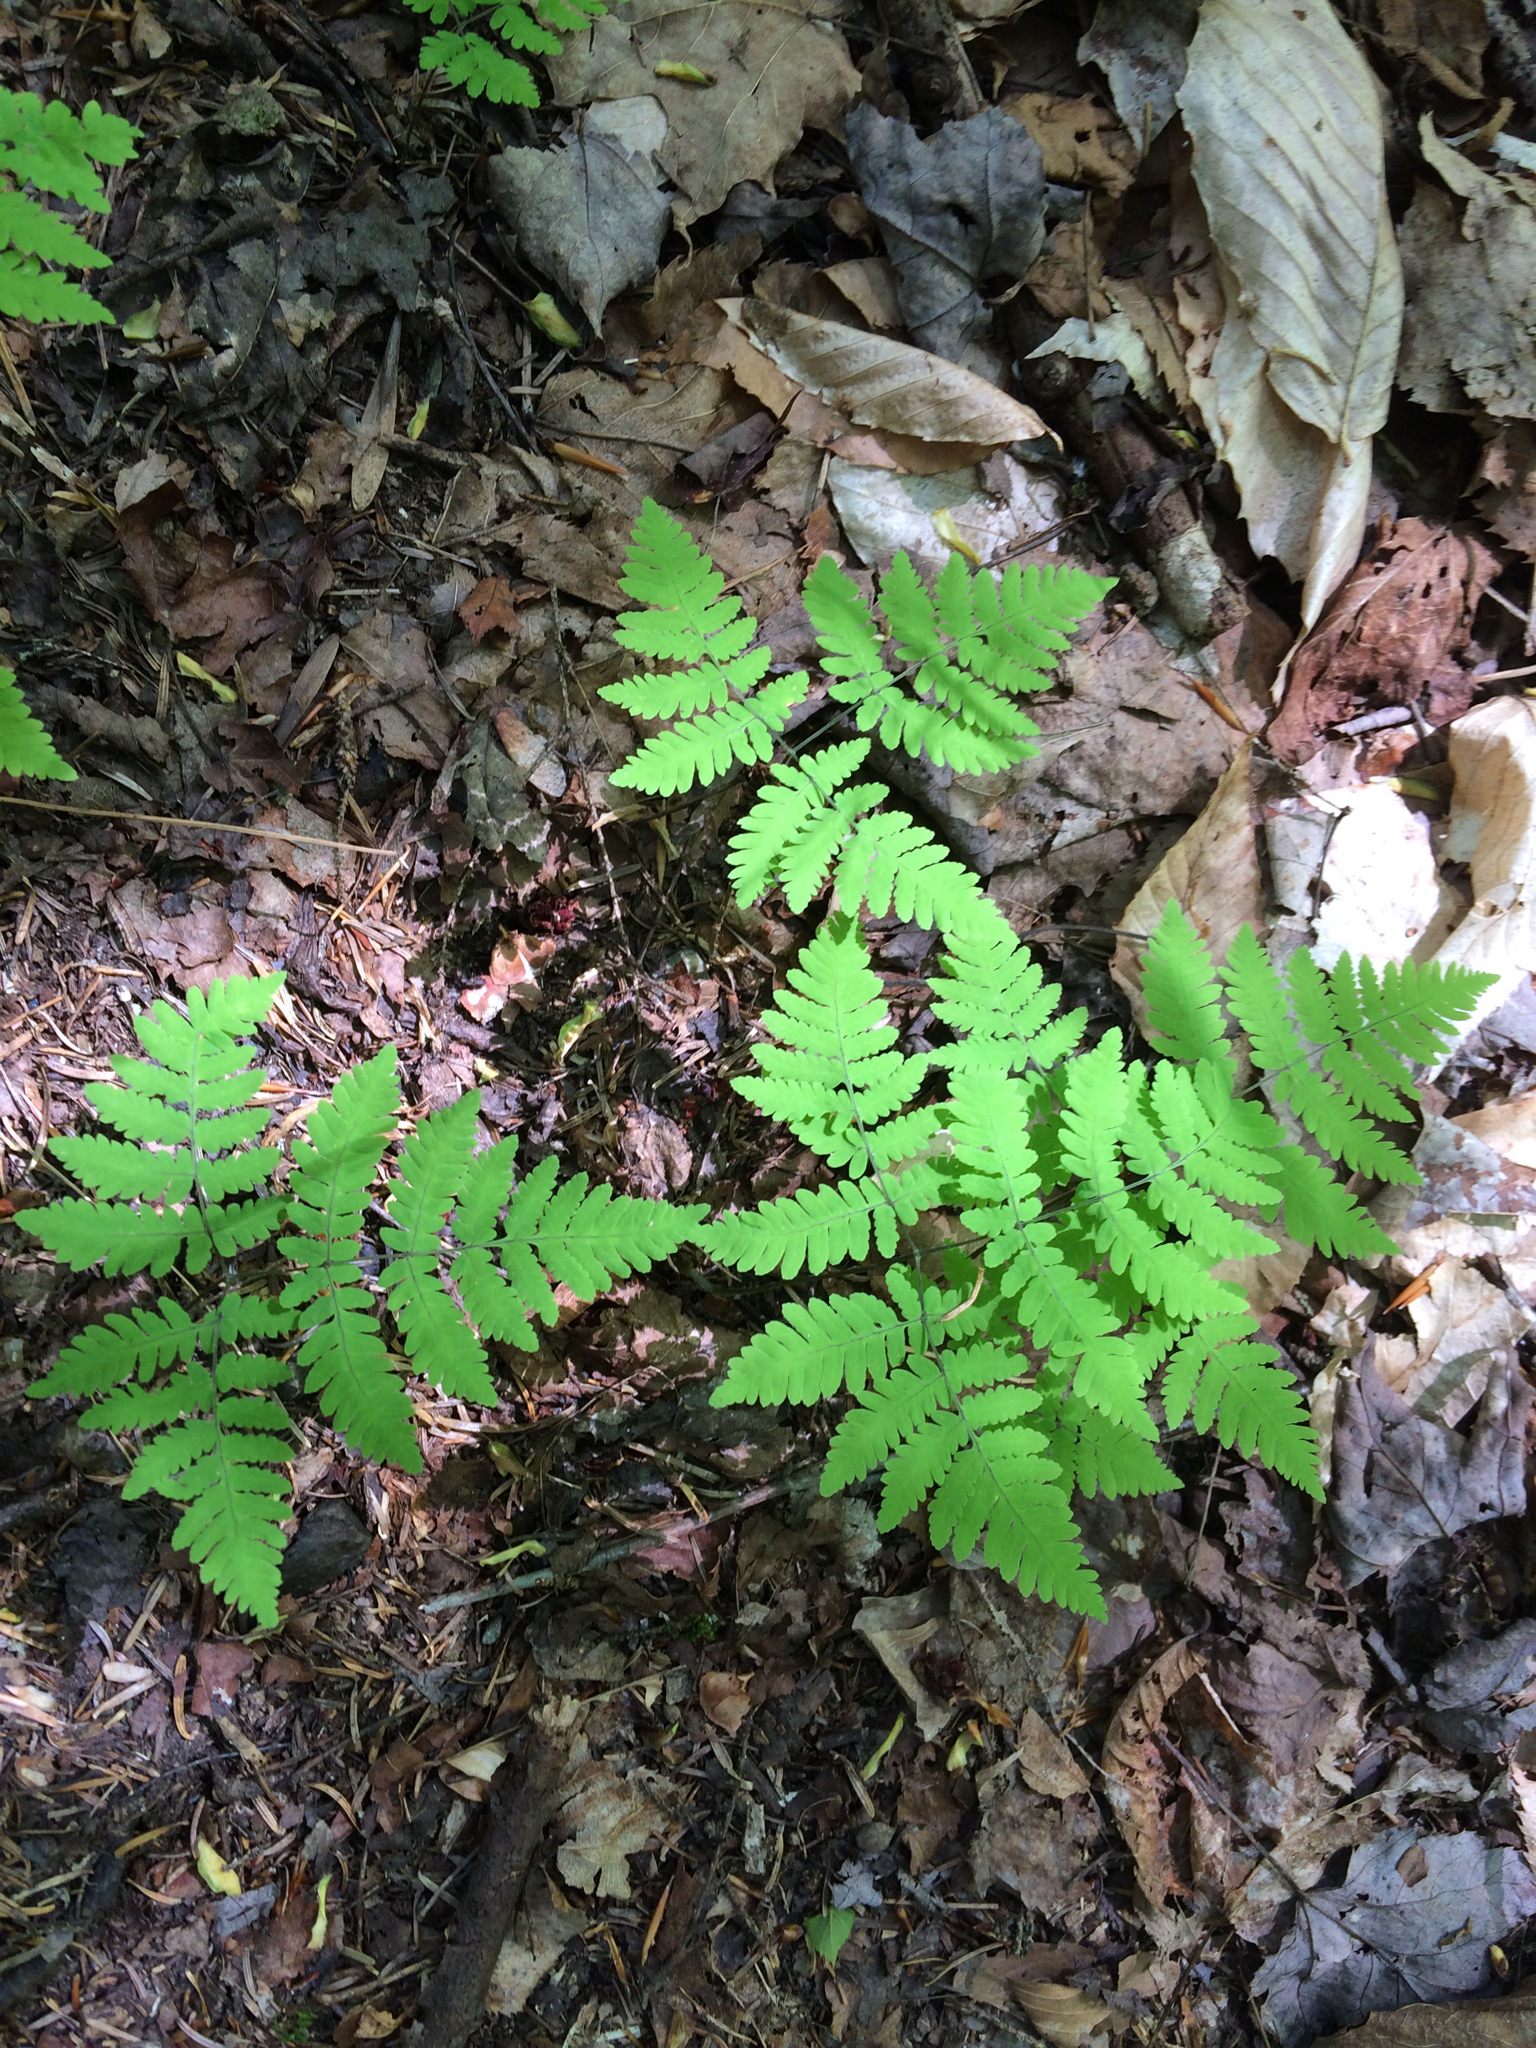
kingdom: Plantae
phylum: Tracheophyta
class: Polypodiopsida
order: Polypodiales
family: Cystopteridaceae
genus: Gymnocarpium
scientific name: Gymnocarpium dryopteris
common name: Oak fern
